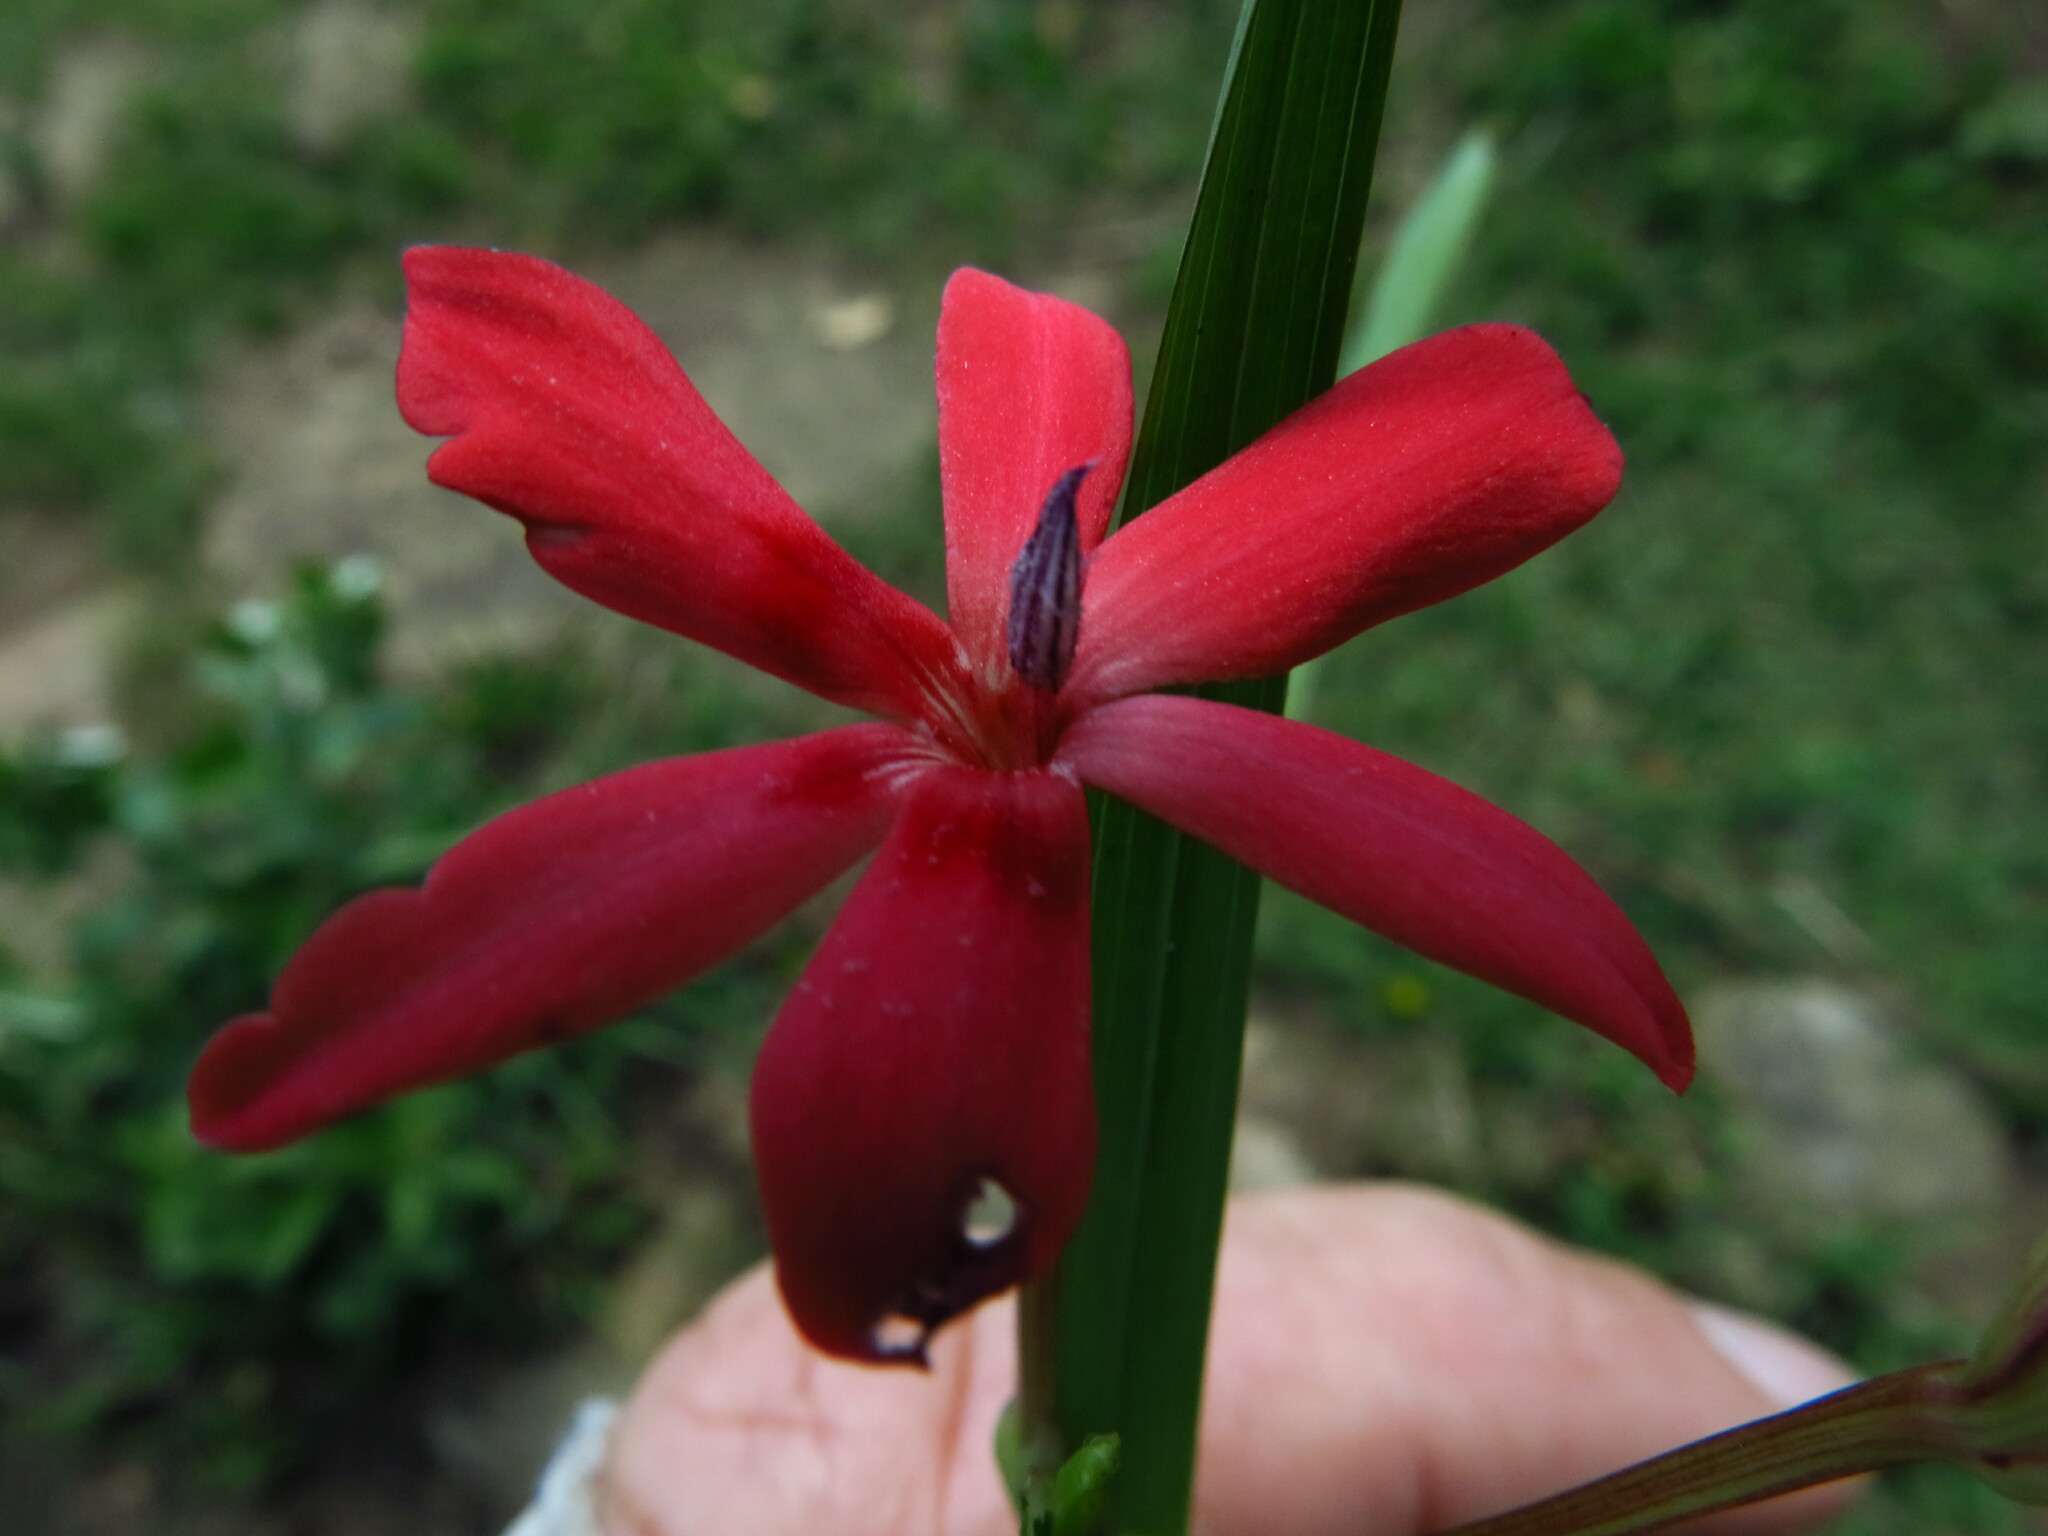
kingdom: Plantae
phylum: Tracheophyta
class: Liliopsida
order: Asparagales
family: Iridaceae
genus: Freesia
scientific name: Freesia laxa
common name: False freesia
